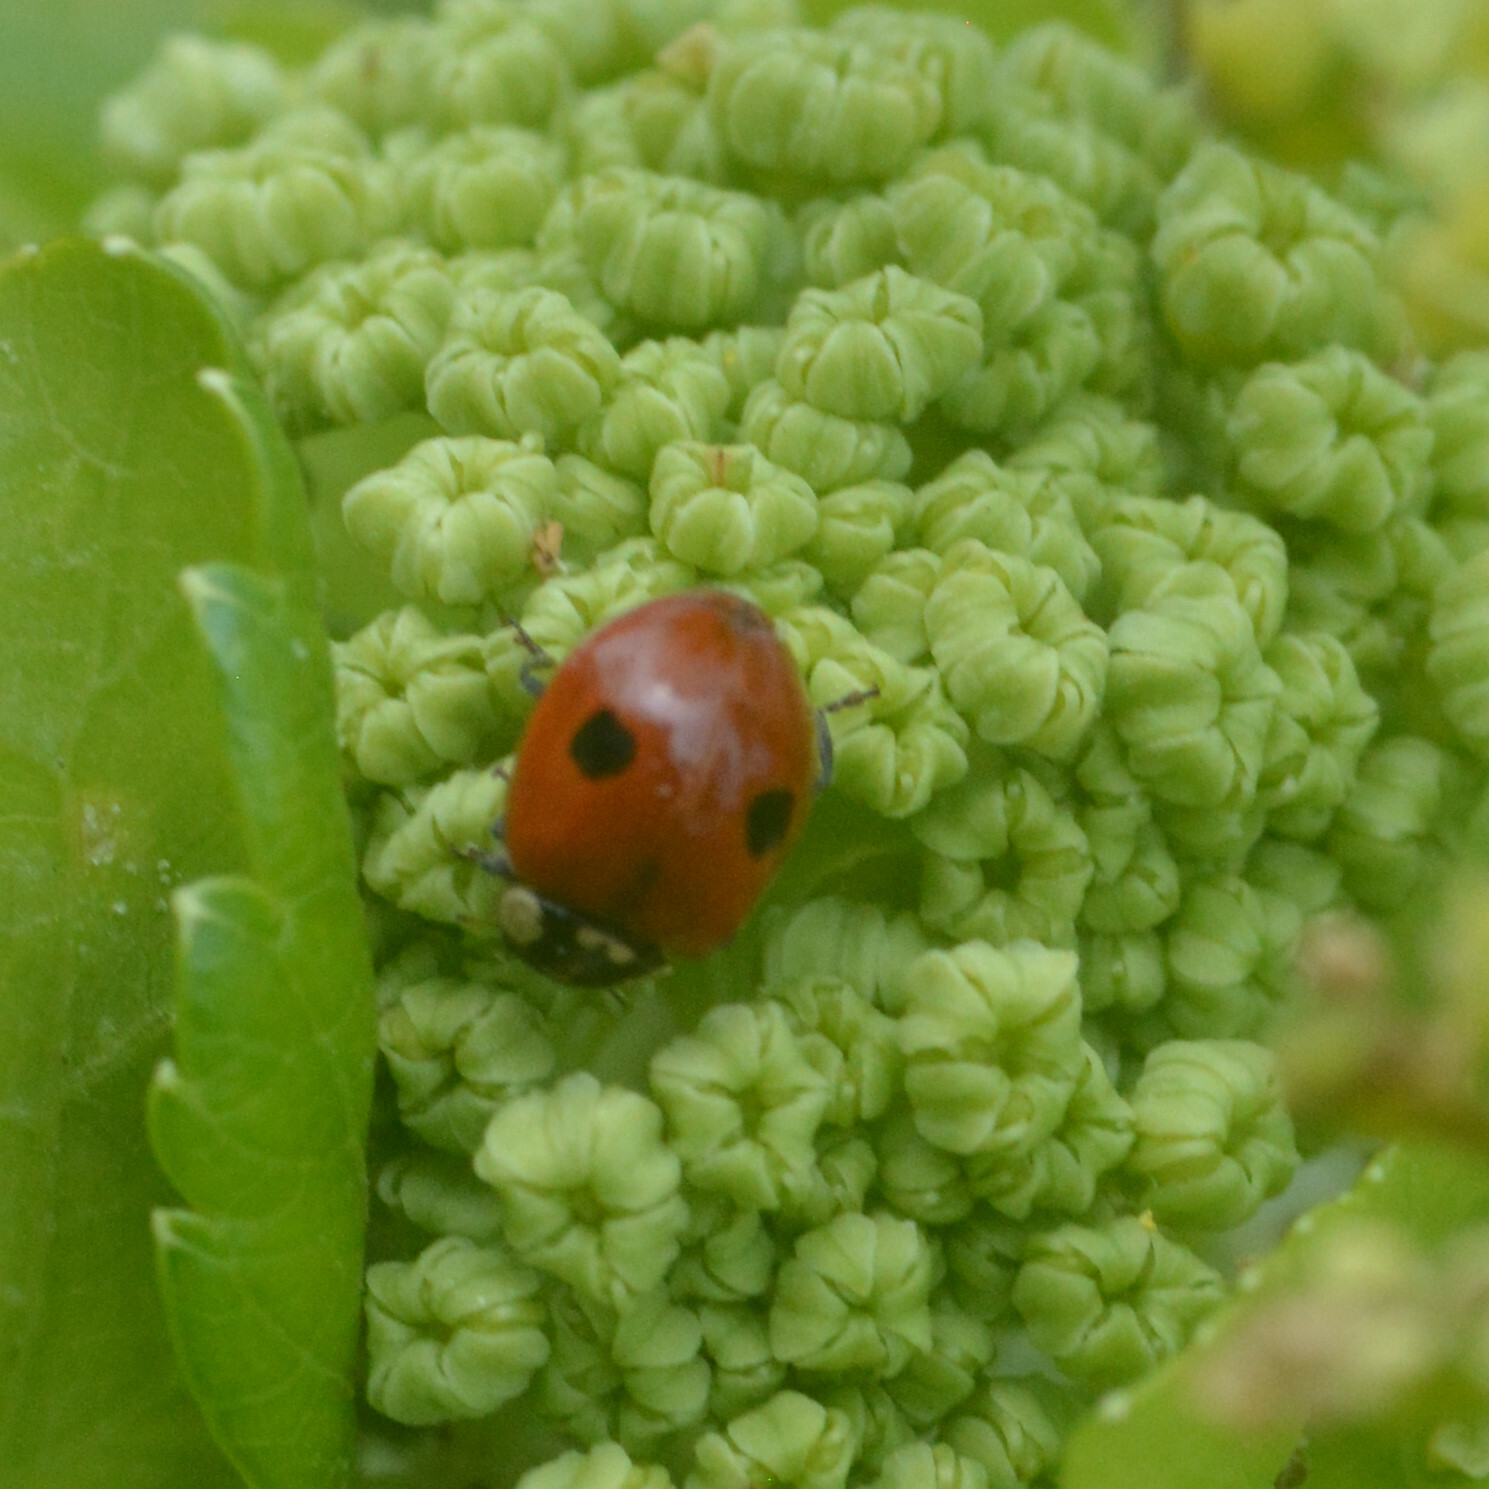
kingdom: Animalia
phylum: Arthropoda
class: Insecta
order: Coleoptera
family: Coccinellidae
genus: Adalia
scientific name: Adalia bipunctata
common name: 2-spot ladybird
